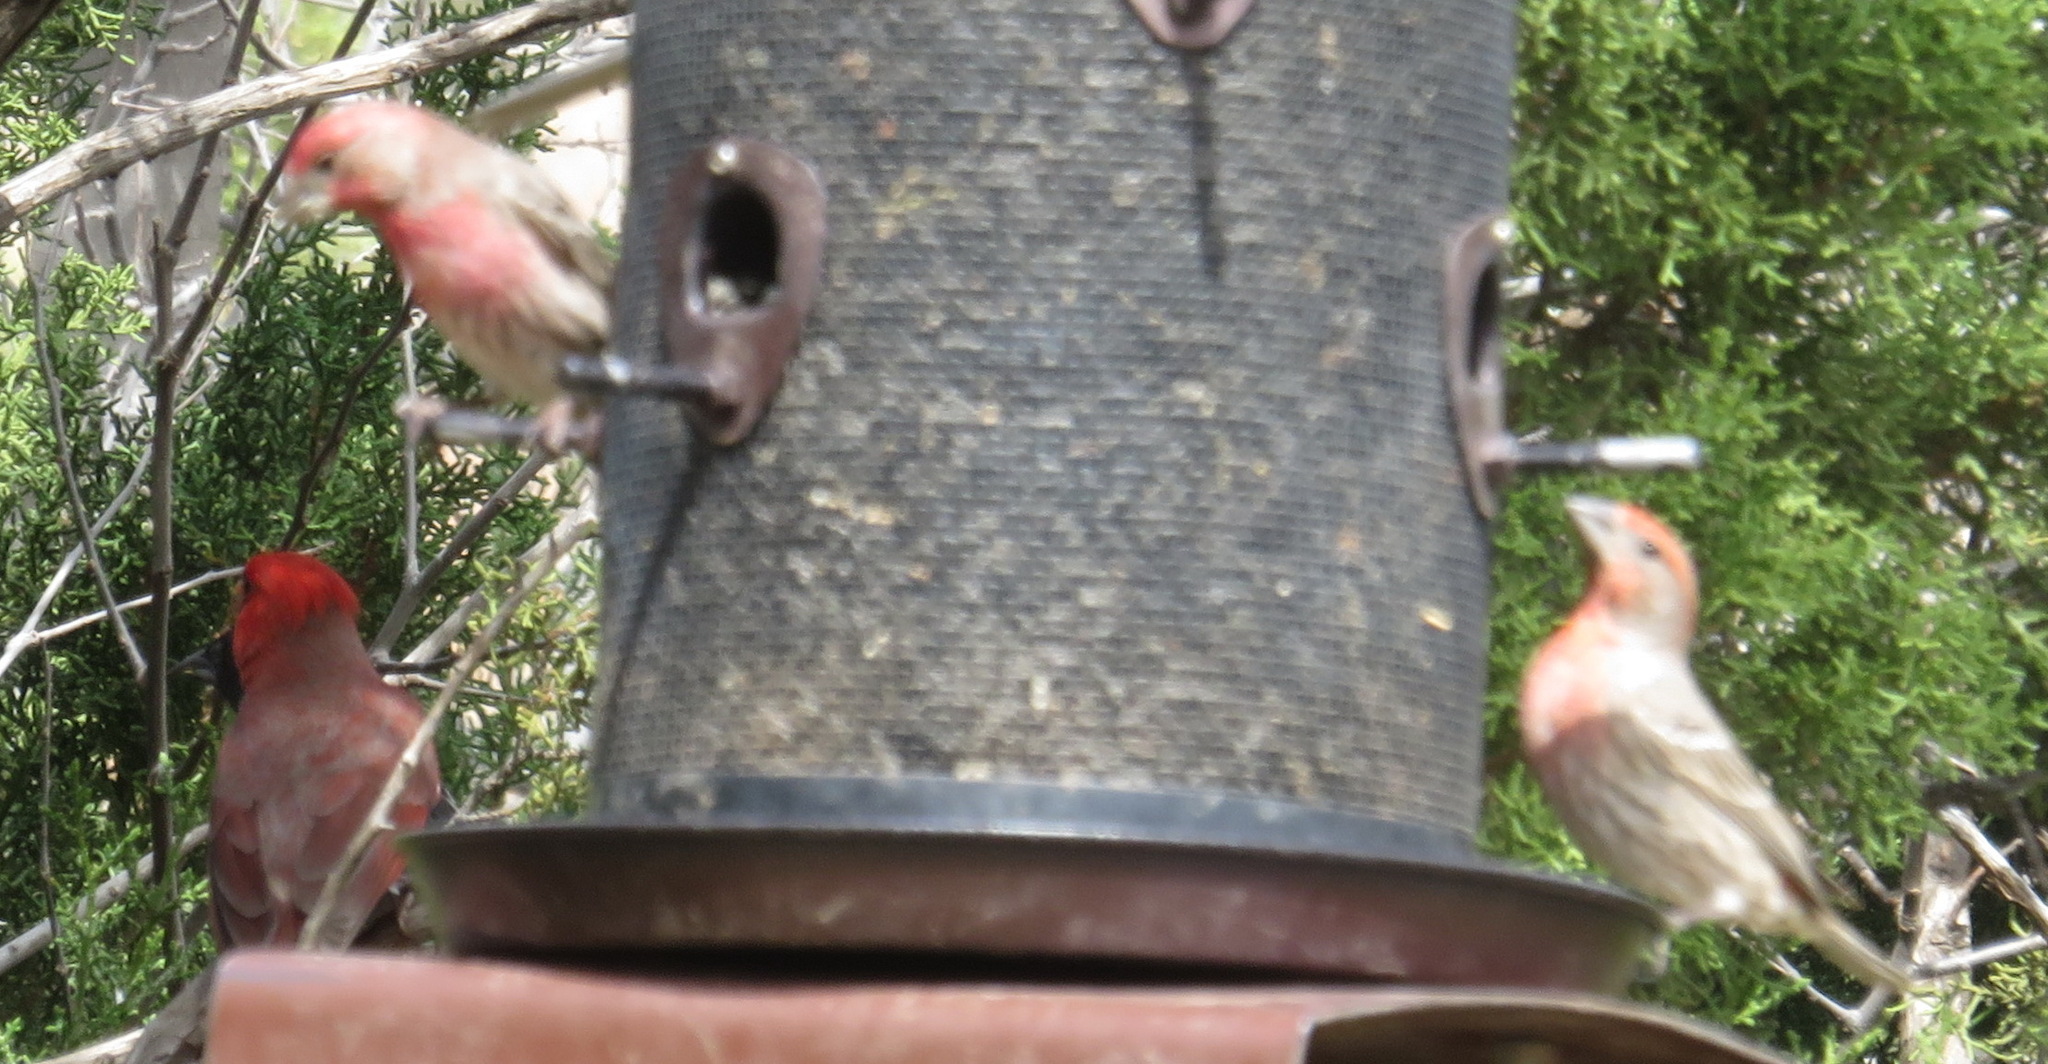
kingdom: Animalia
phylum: Chordata
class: Aves
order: Passeriformes
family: Fringillidae
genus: Haemorhous
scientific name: Haemorhous mexicanus
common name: House finch
